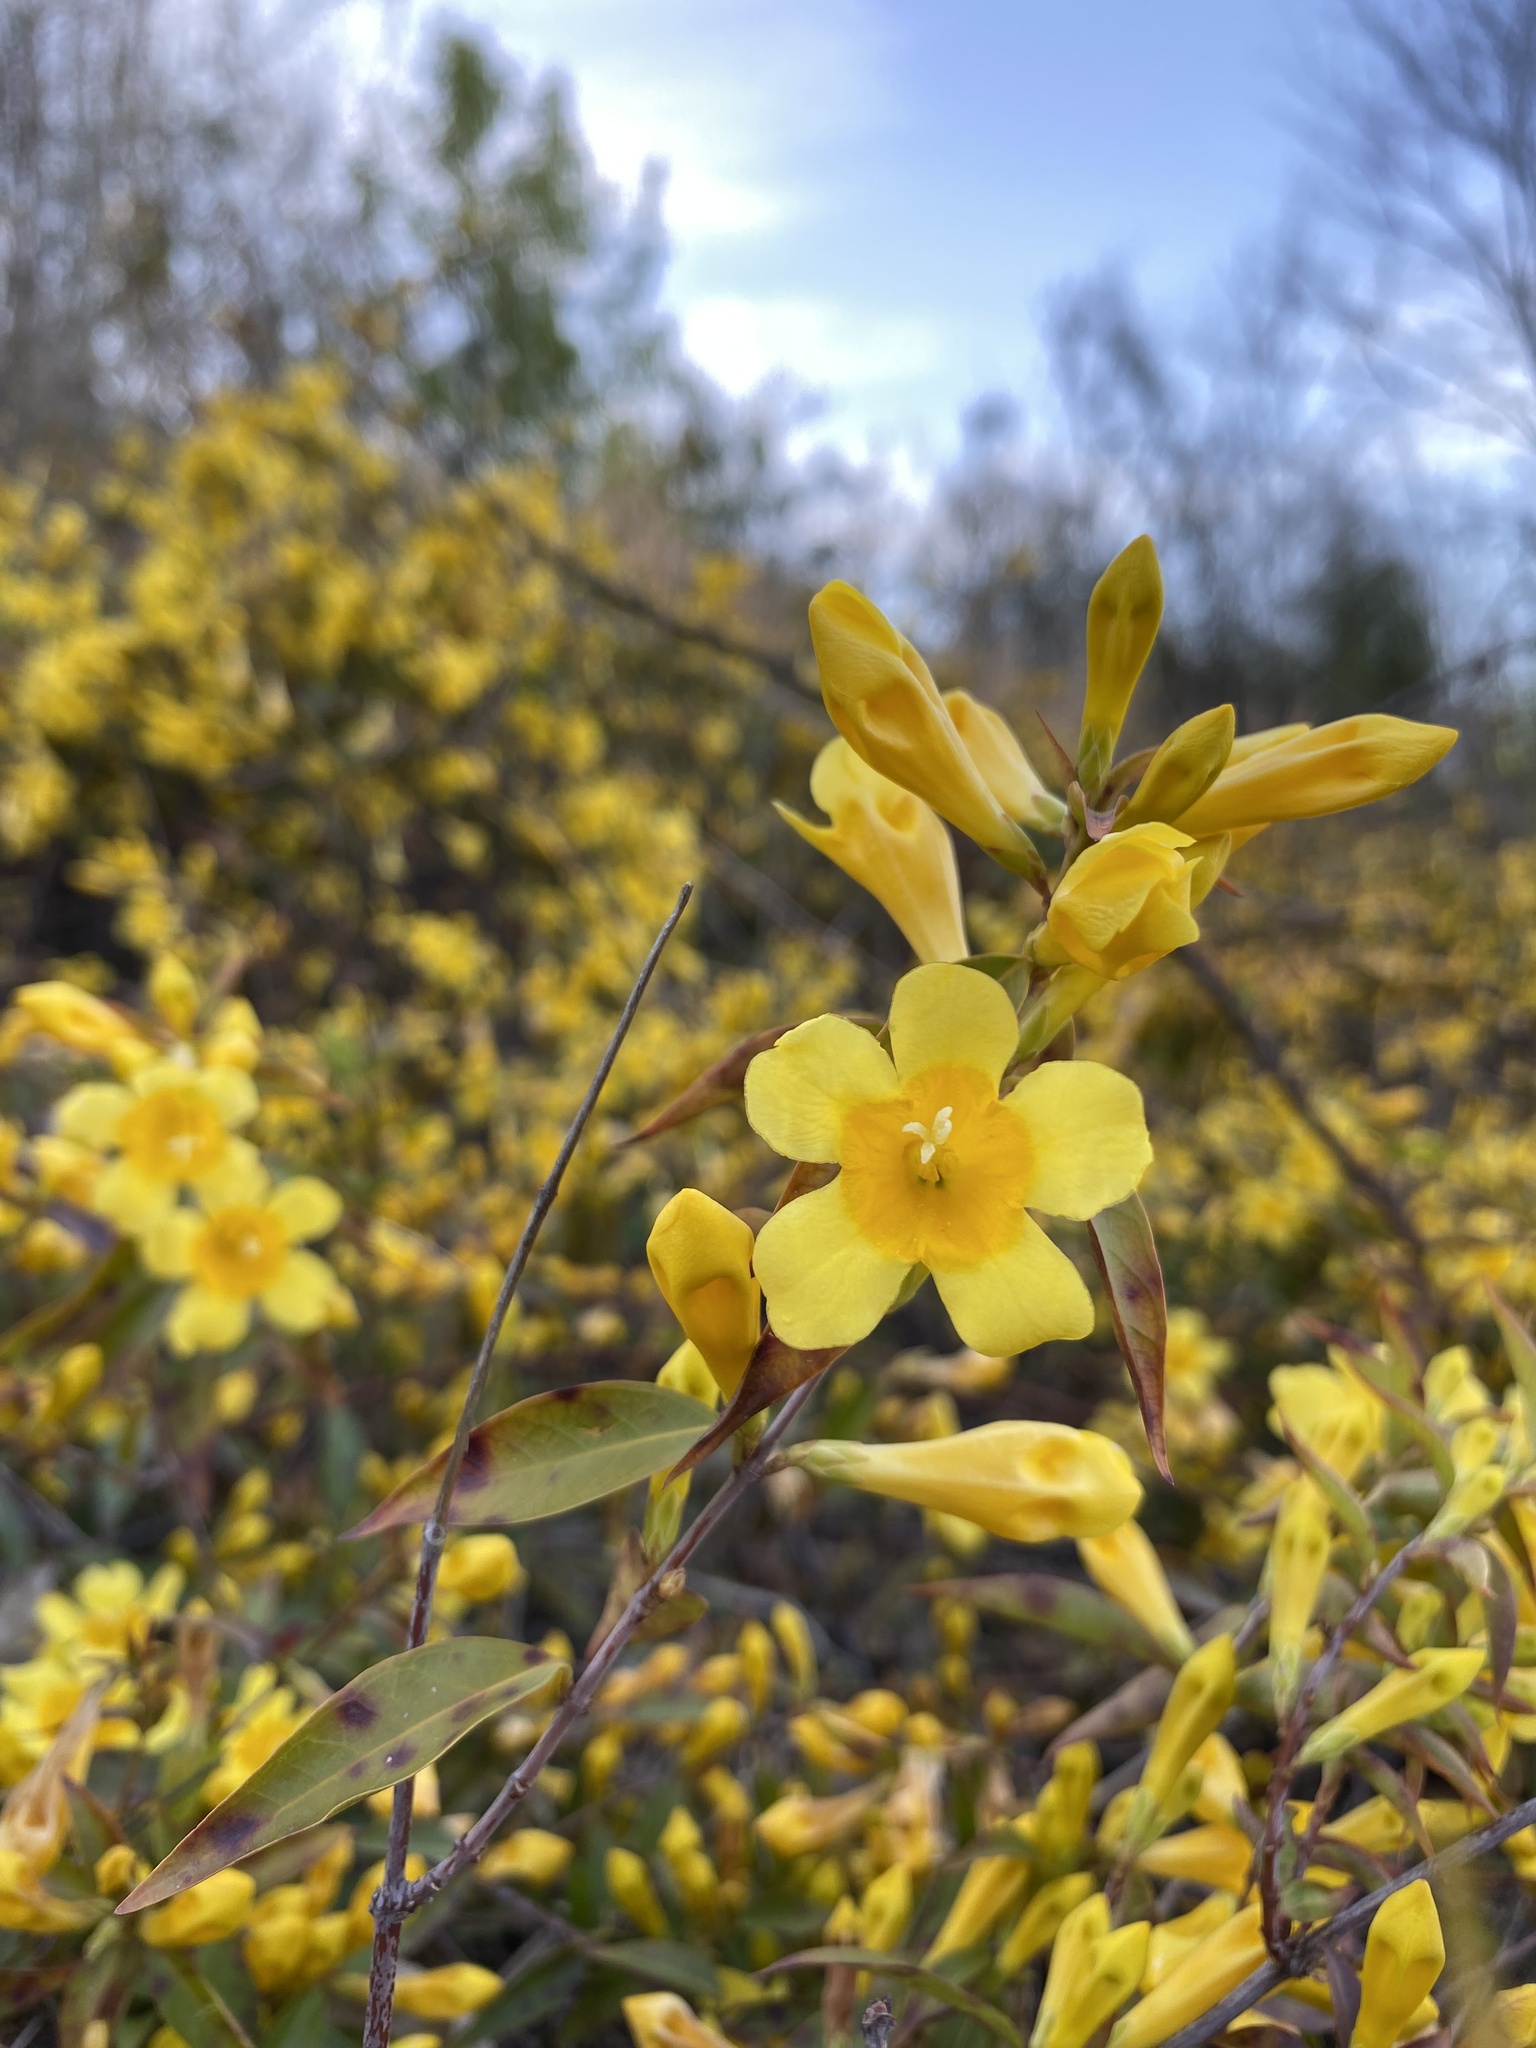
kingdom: Plantae
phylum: Tracheophyta
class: Magnoliopsida
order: Gentianales
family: Gelsemiaceae
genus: Gelsemium
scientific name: Gelsemium sempervirens
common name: Carolina-jasmine
